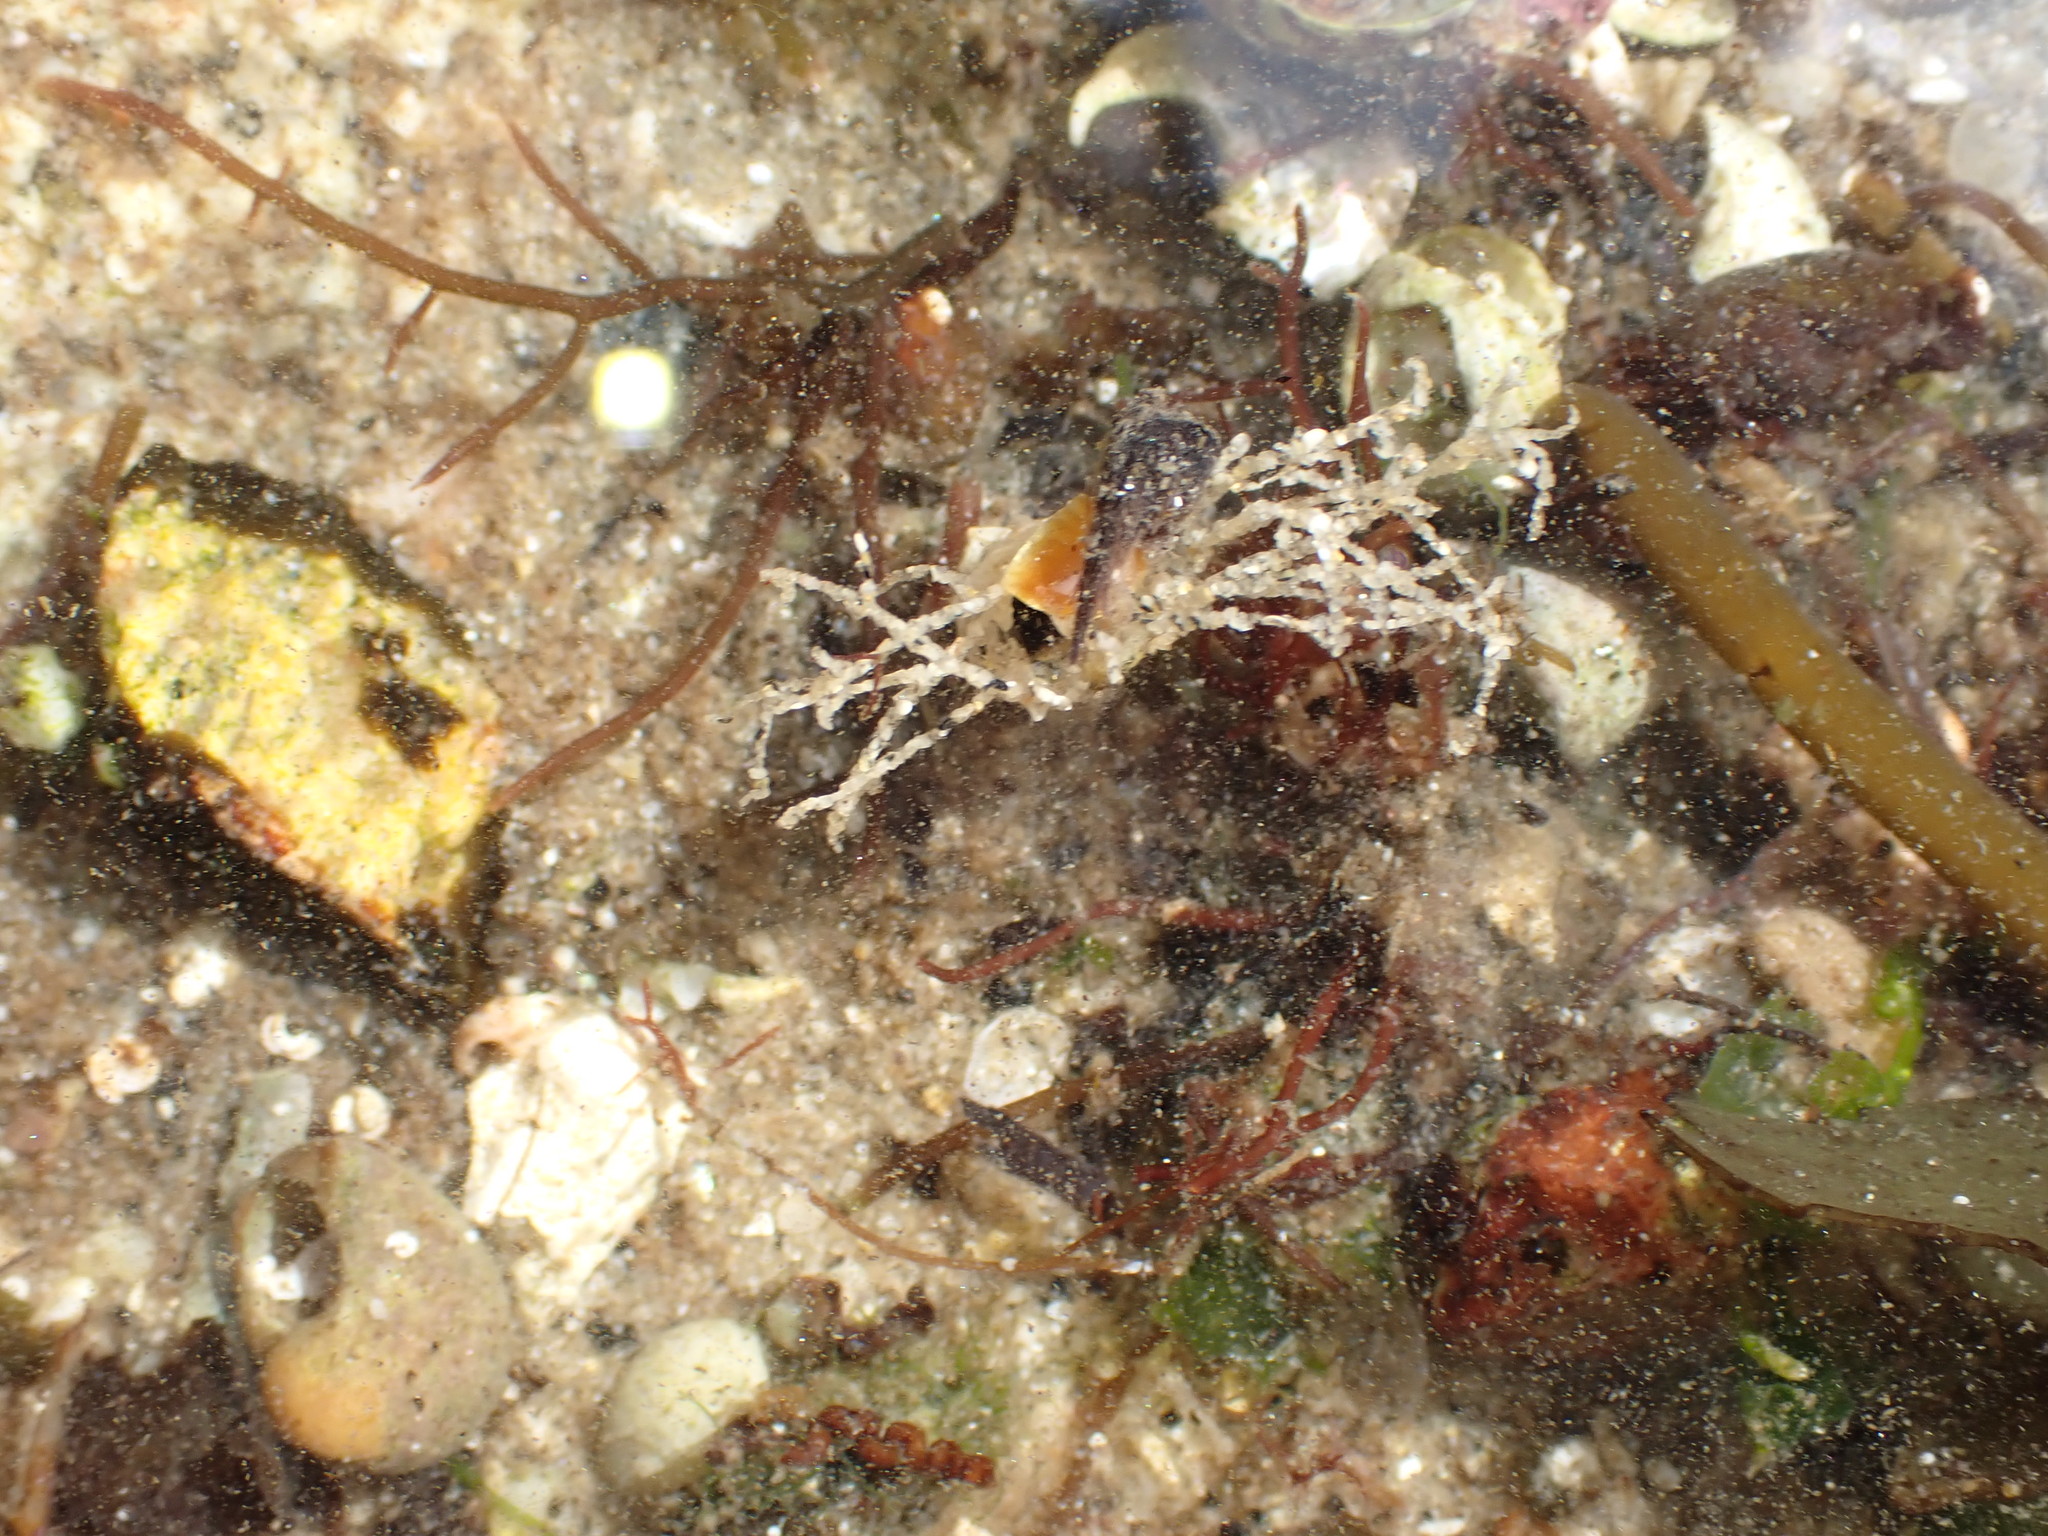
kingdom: Animalia
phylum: Annelida
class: Polychaeta
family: Terebellidae
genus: Lanice
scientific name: Lanice conchilega
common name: Sand mason
